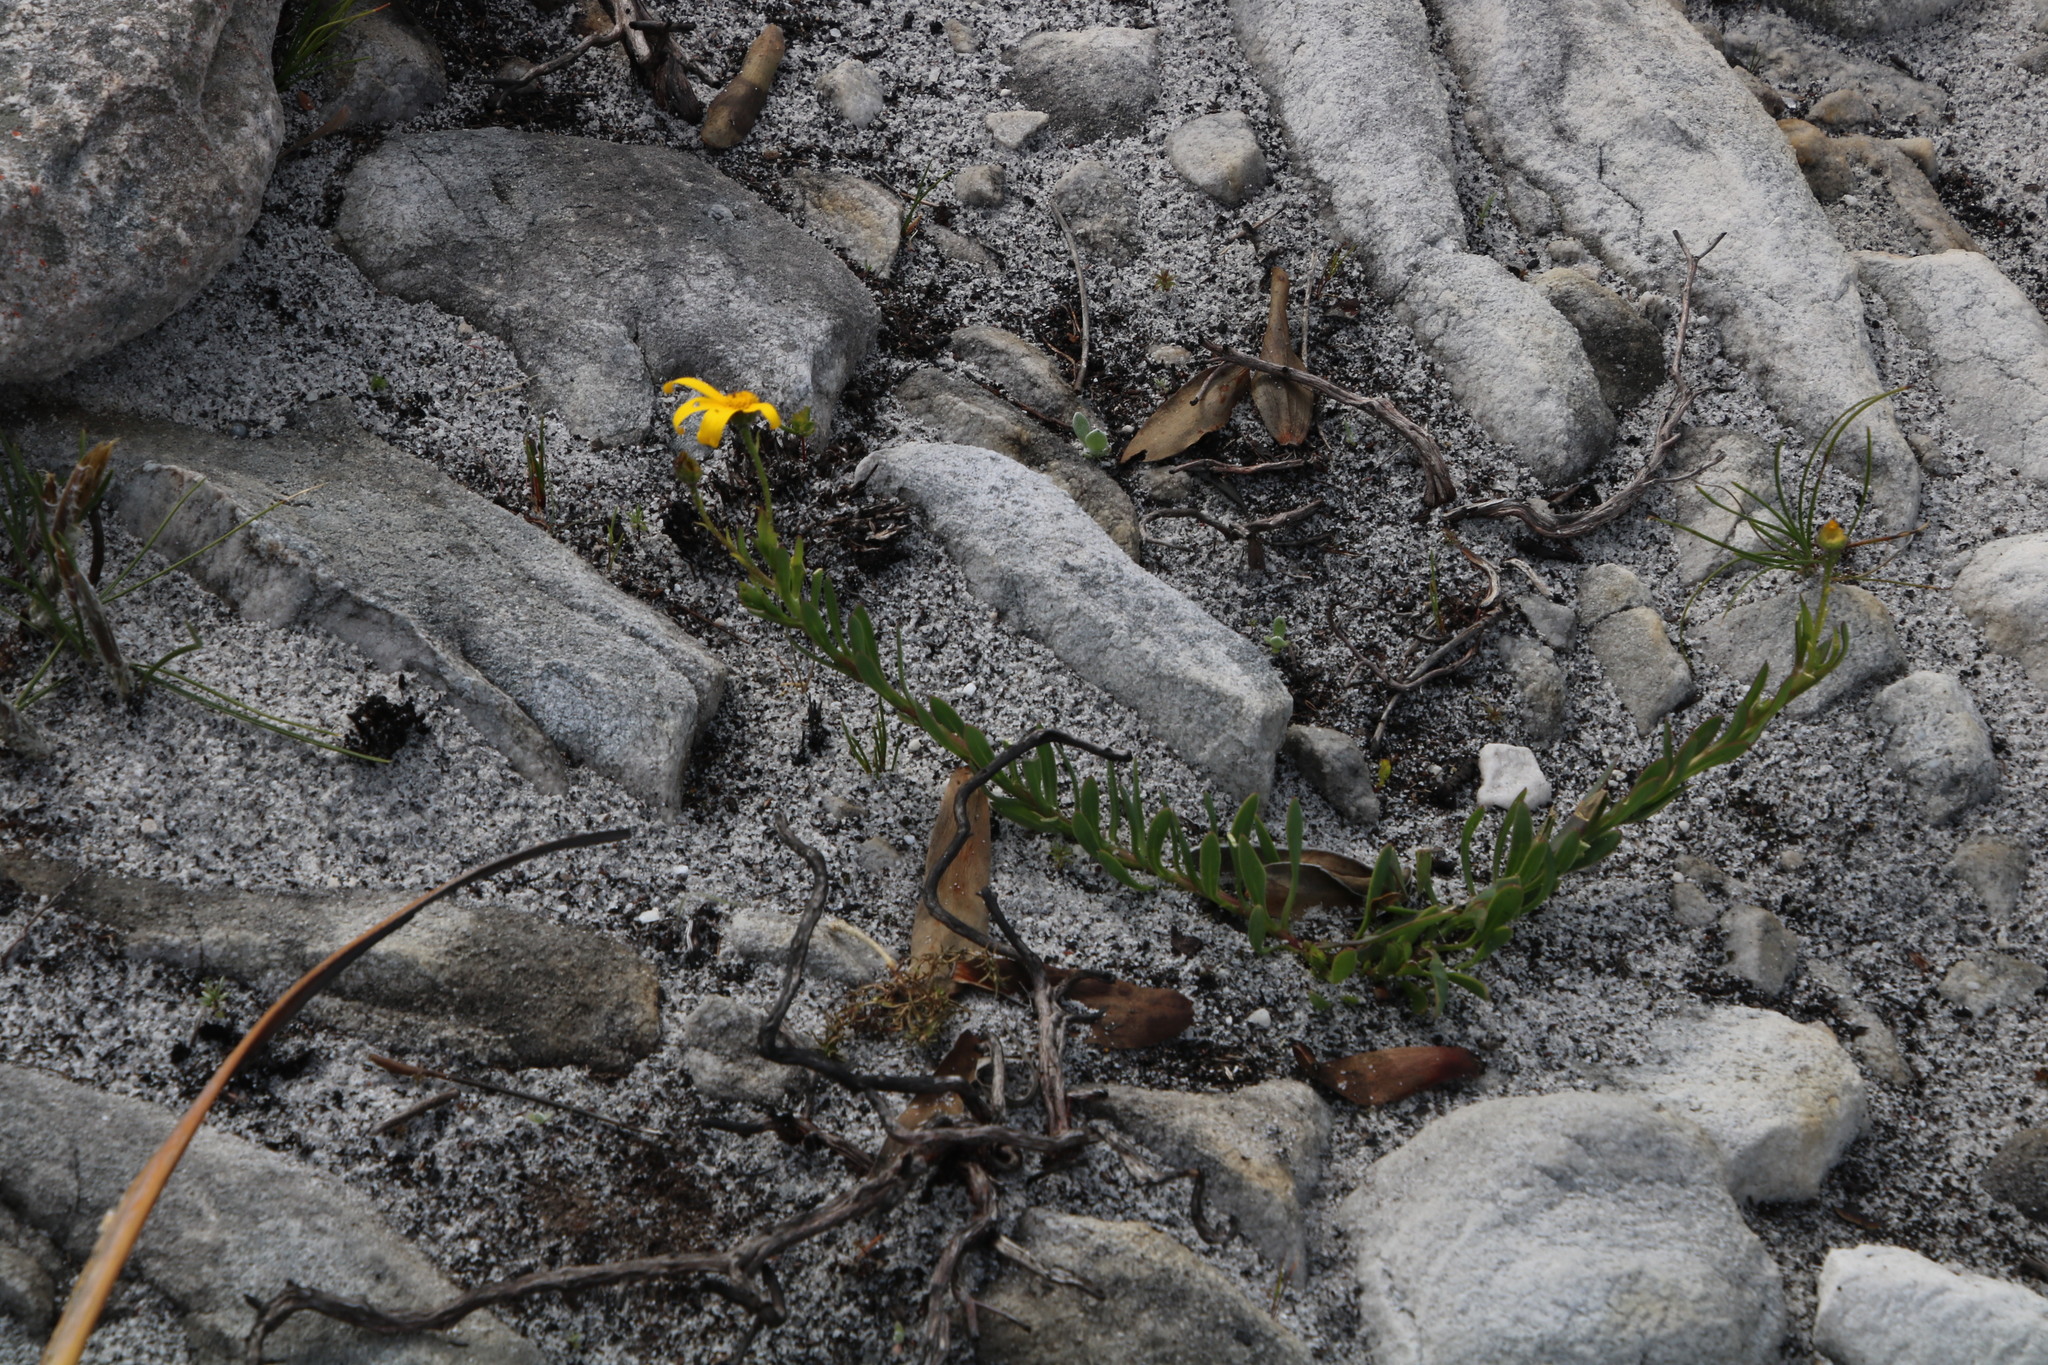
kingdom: Plantae
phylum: Tracheophyta
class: Magnoliopsida
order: Asterales
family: Asteraceae
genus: Osteospermum
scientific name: Osteospermum polygaloides
